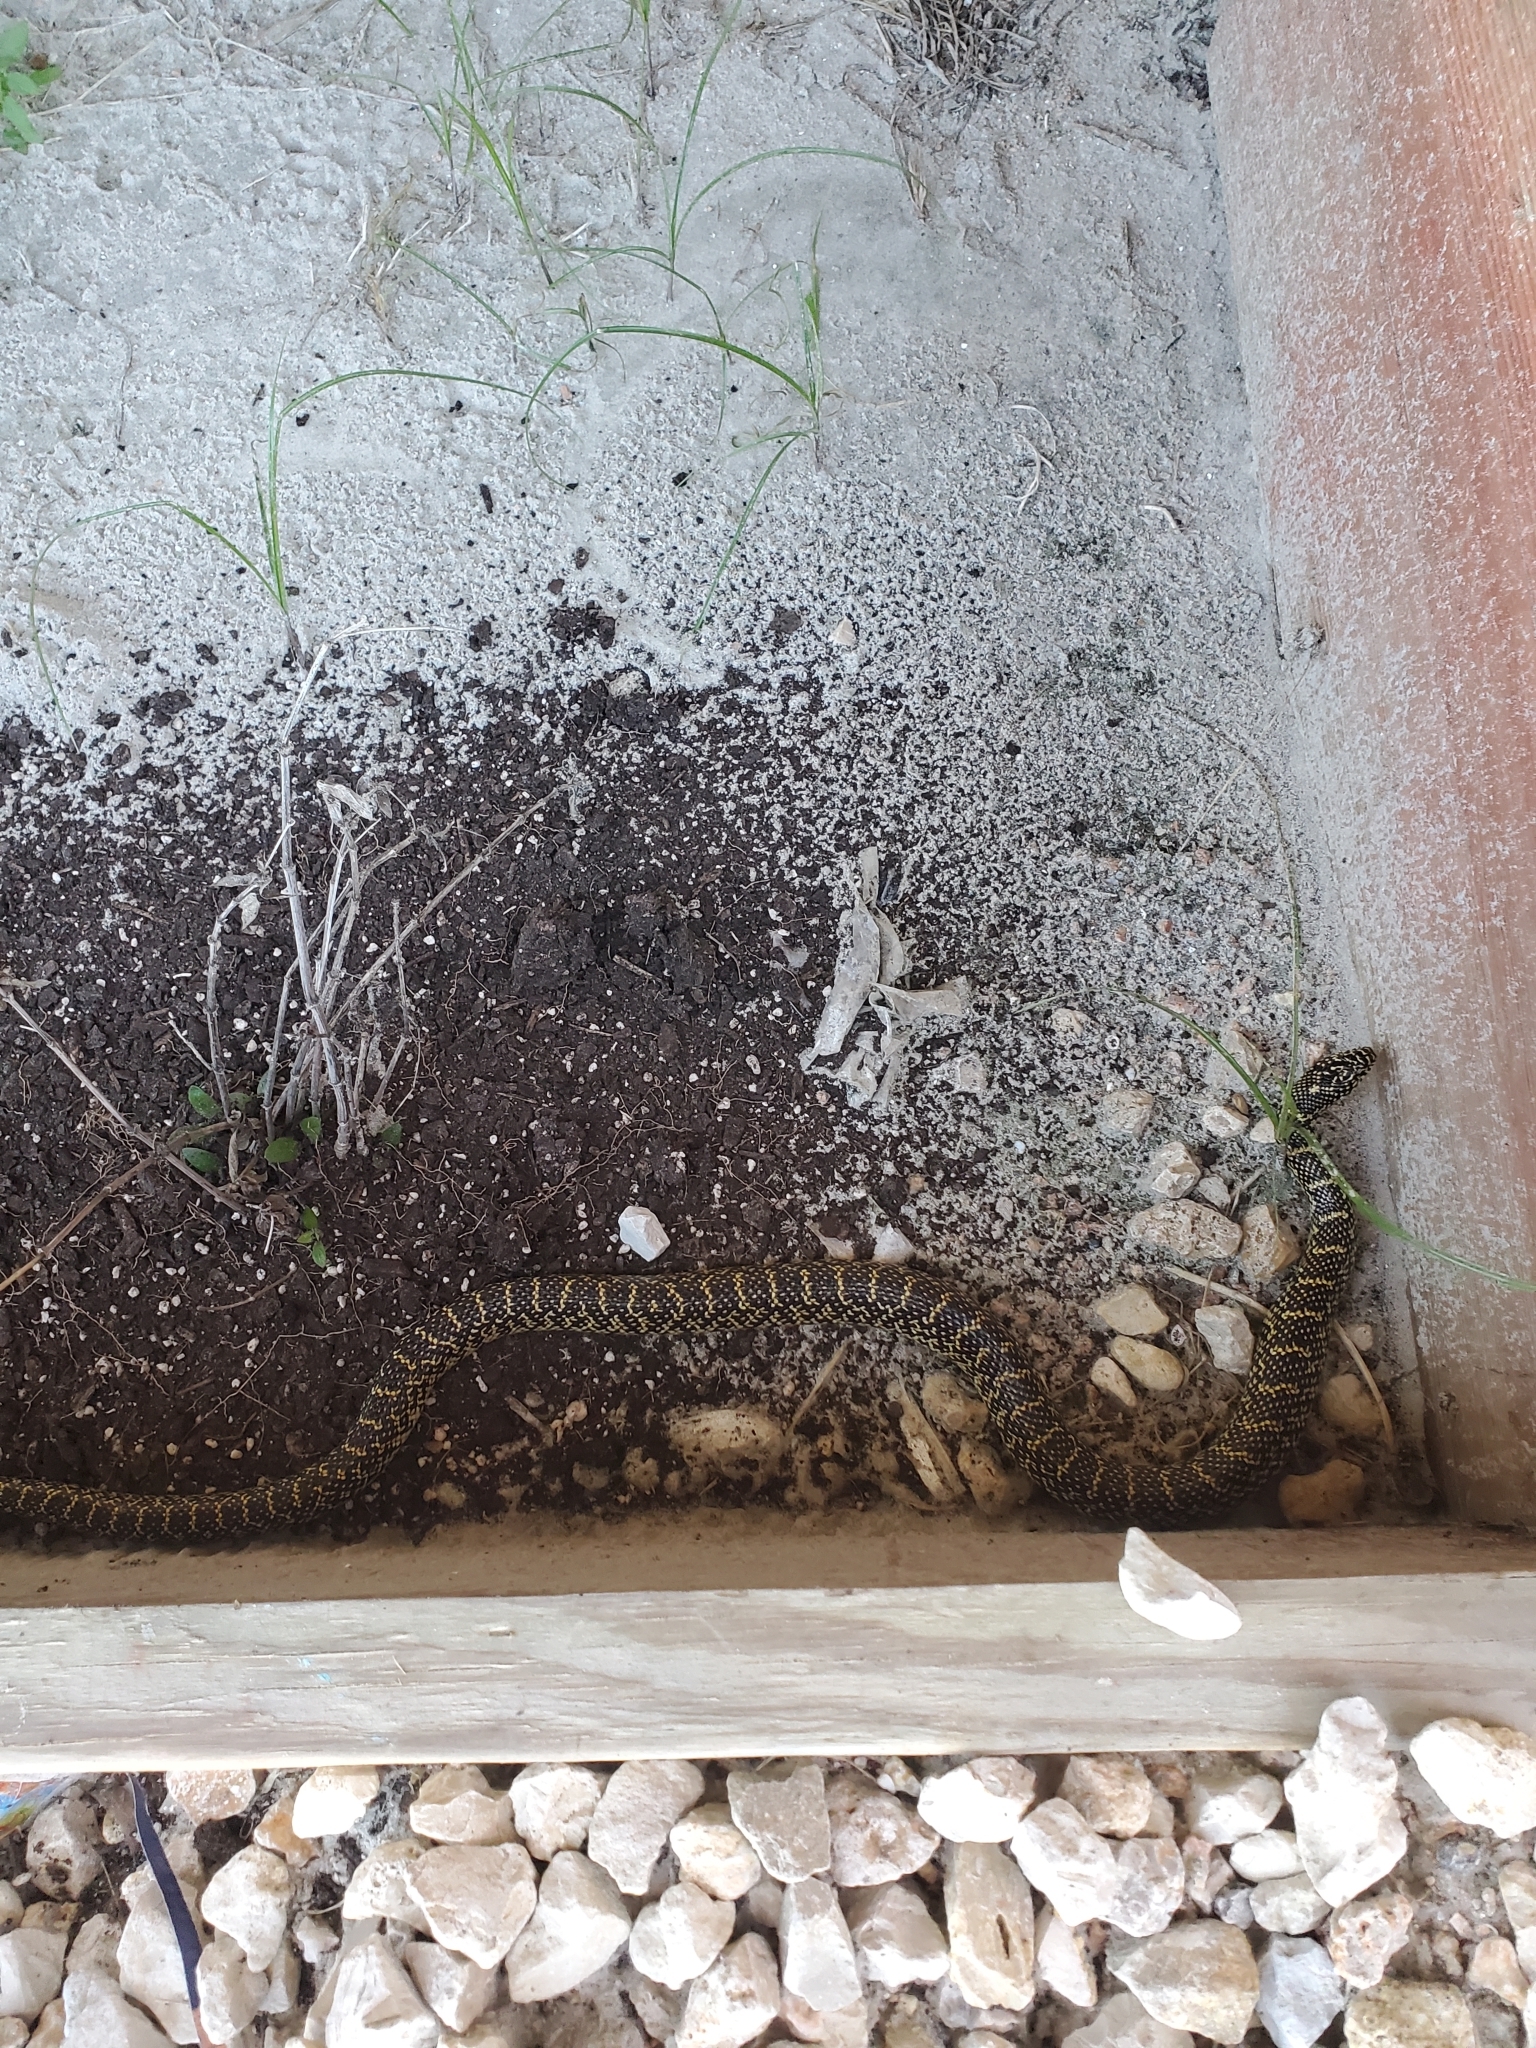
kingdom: Animalia
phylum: Chordata
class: Squamata
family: Colubridae
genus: Lampropeltis
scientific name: Lampropeltis holbrooki
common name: Speckled kingsnake
